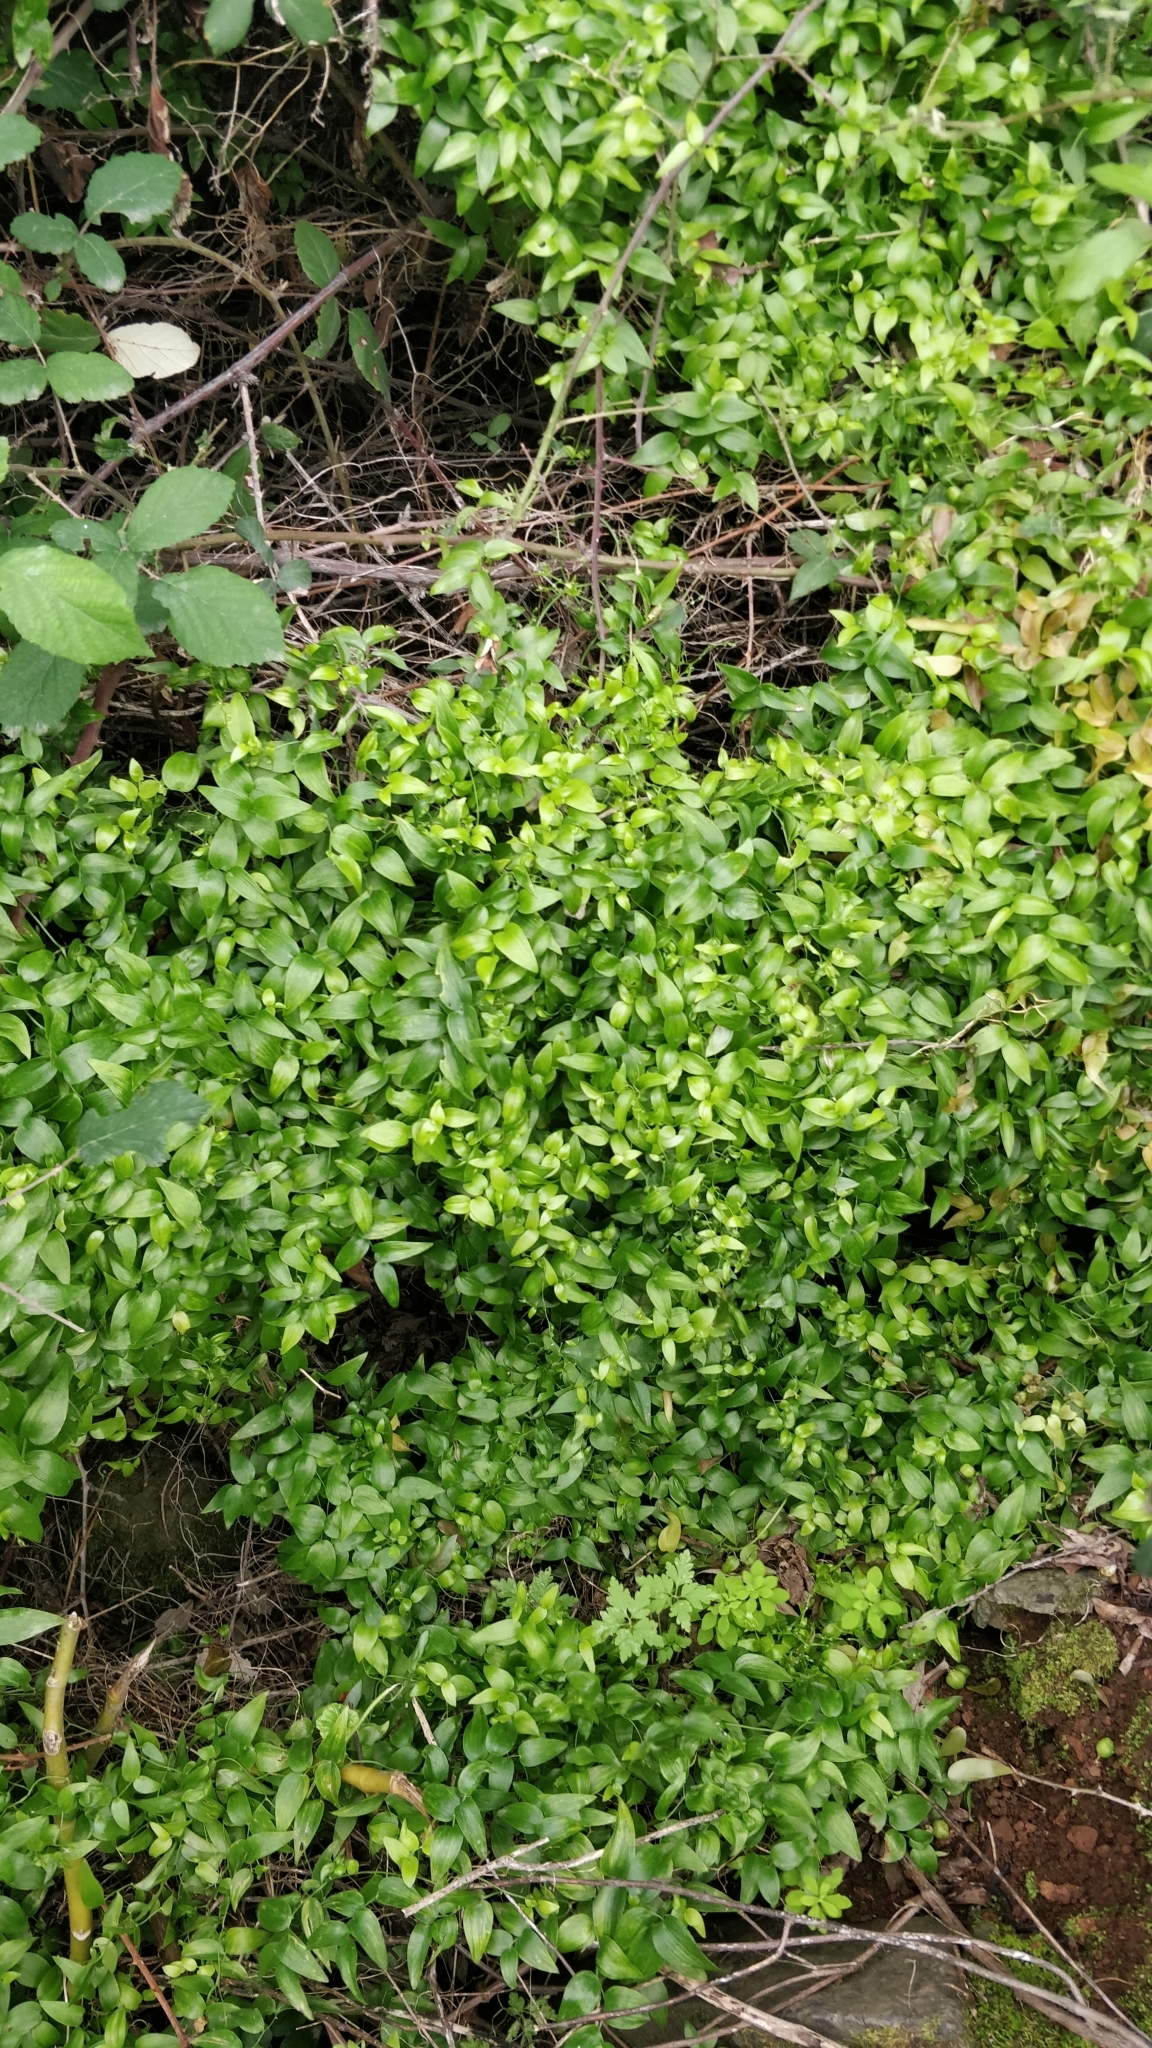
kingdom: Plantae
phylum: Tracheophyta
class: Liliopsida
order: Asparagales
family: Asparagaceae
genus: Asparagus
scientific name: Asparagus asparagoides
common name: African asparagus fern
